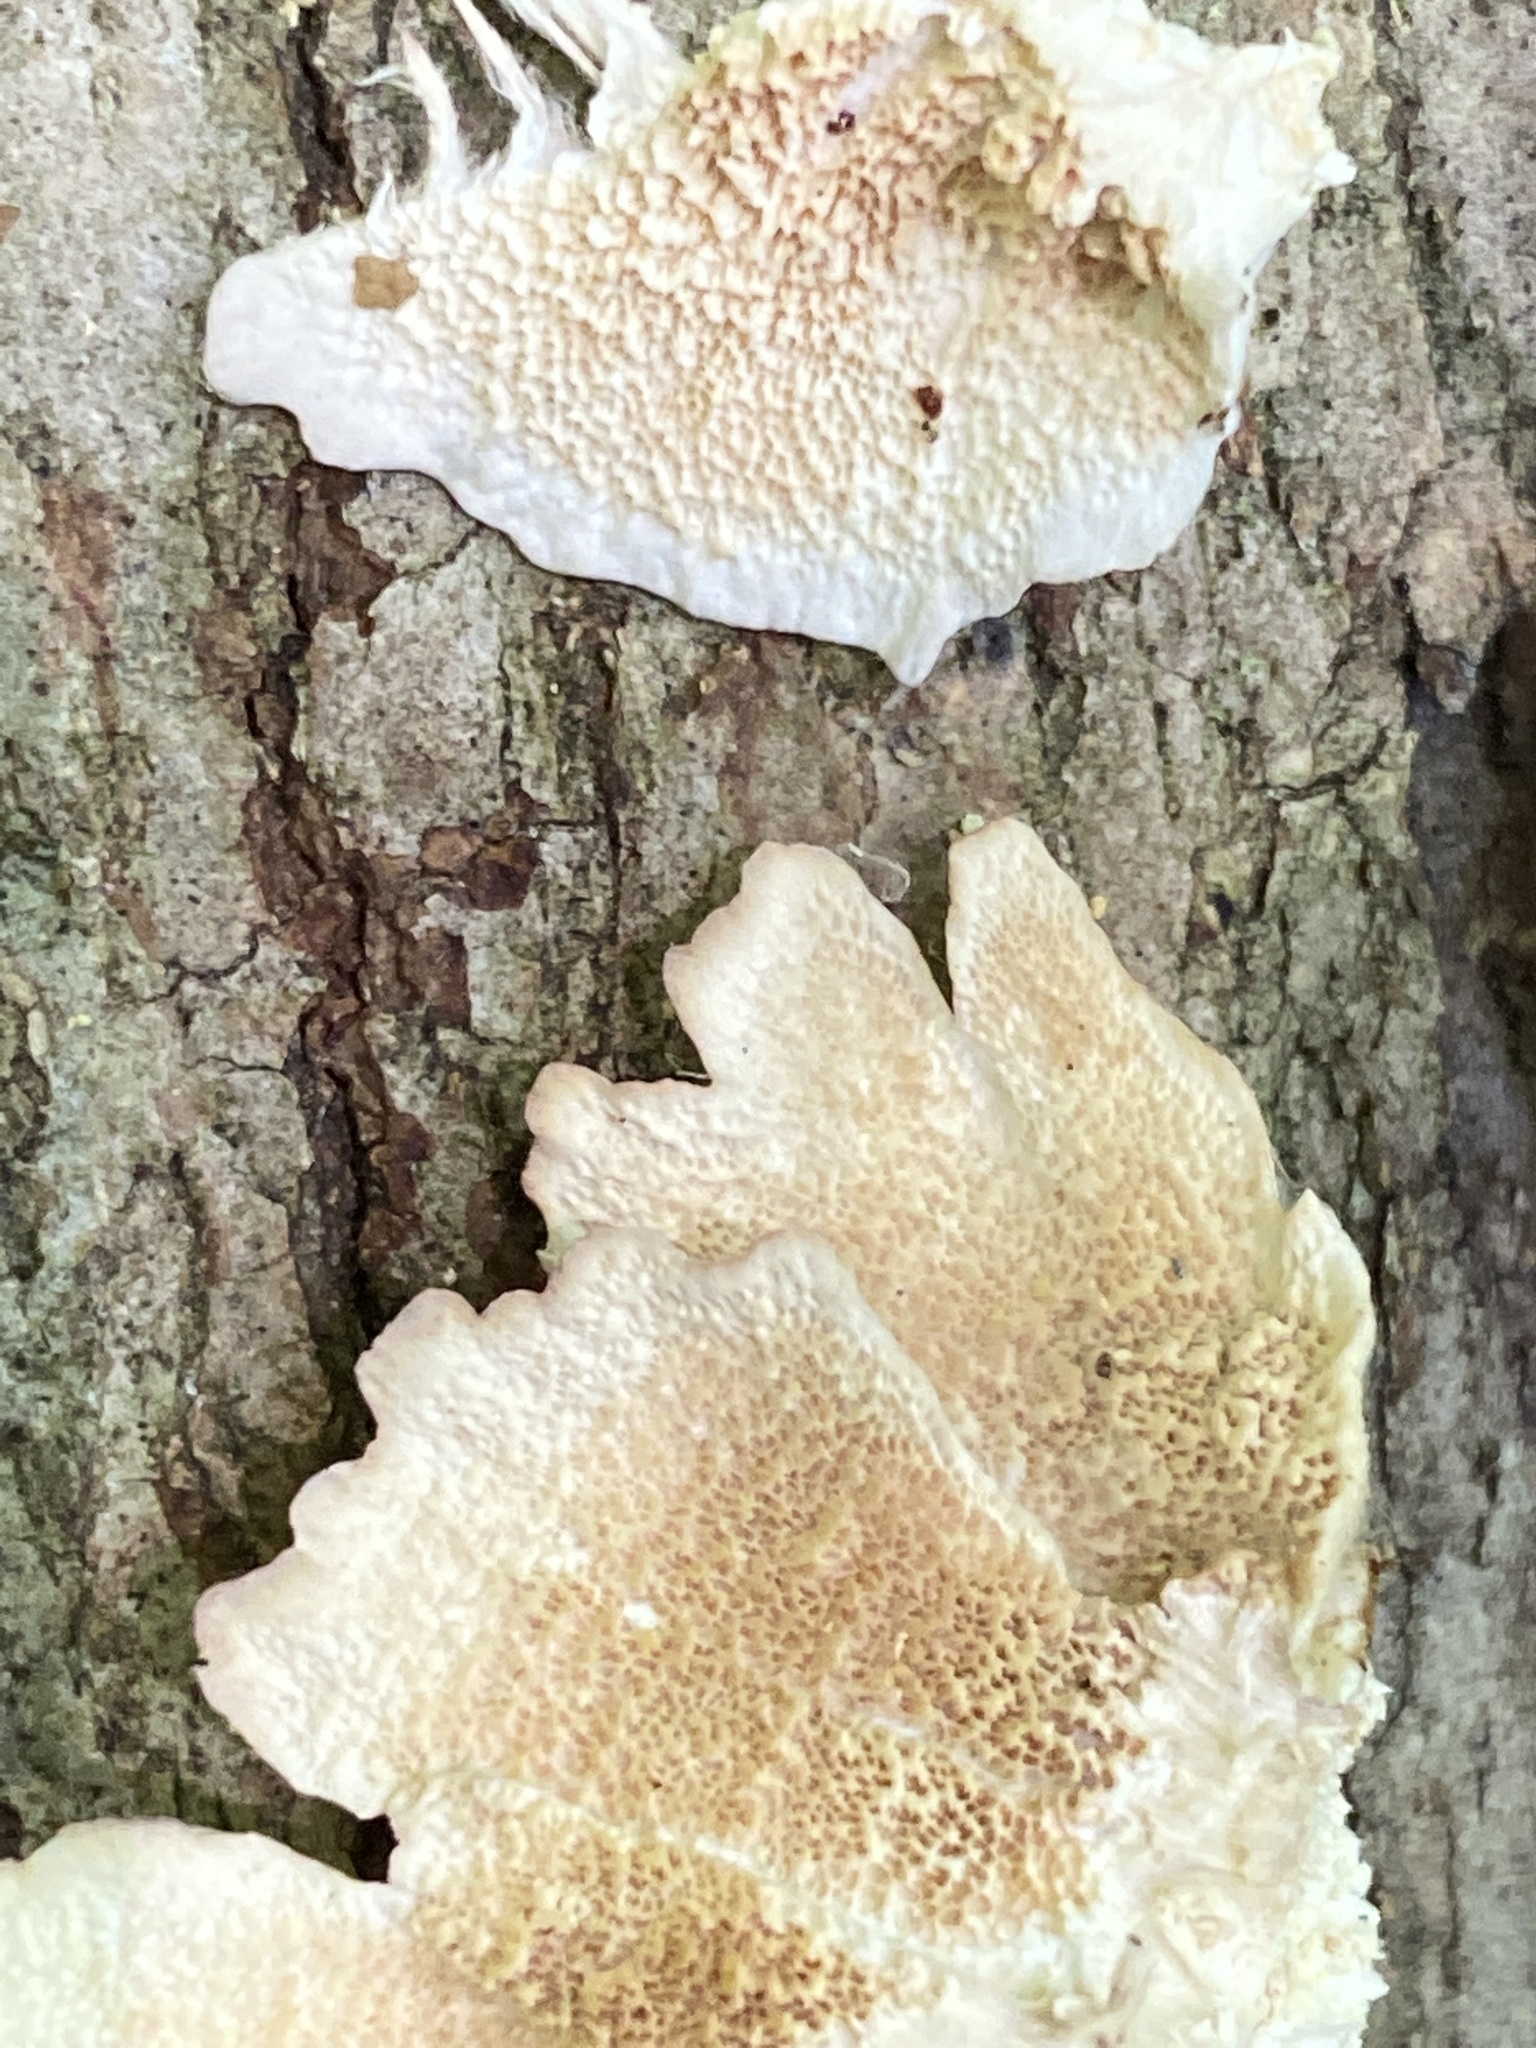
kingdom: Fungi
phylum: Basidiomycota
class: Agaricomycetes
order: Hymenochaetales
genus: Trichaptum
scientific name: Trichaptum biforme
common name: Violet-toothed polypore
